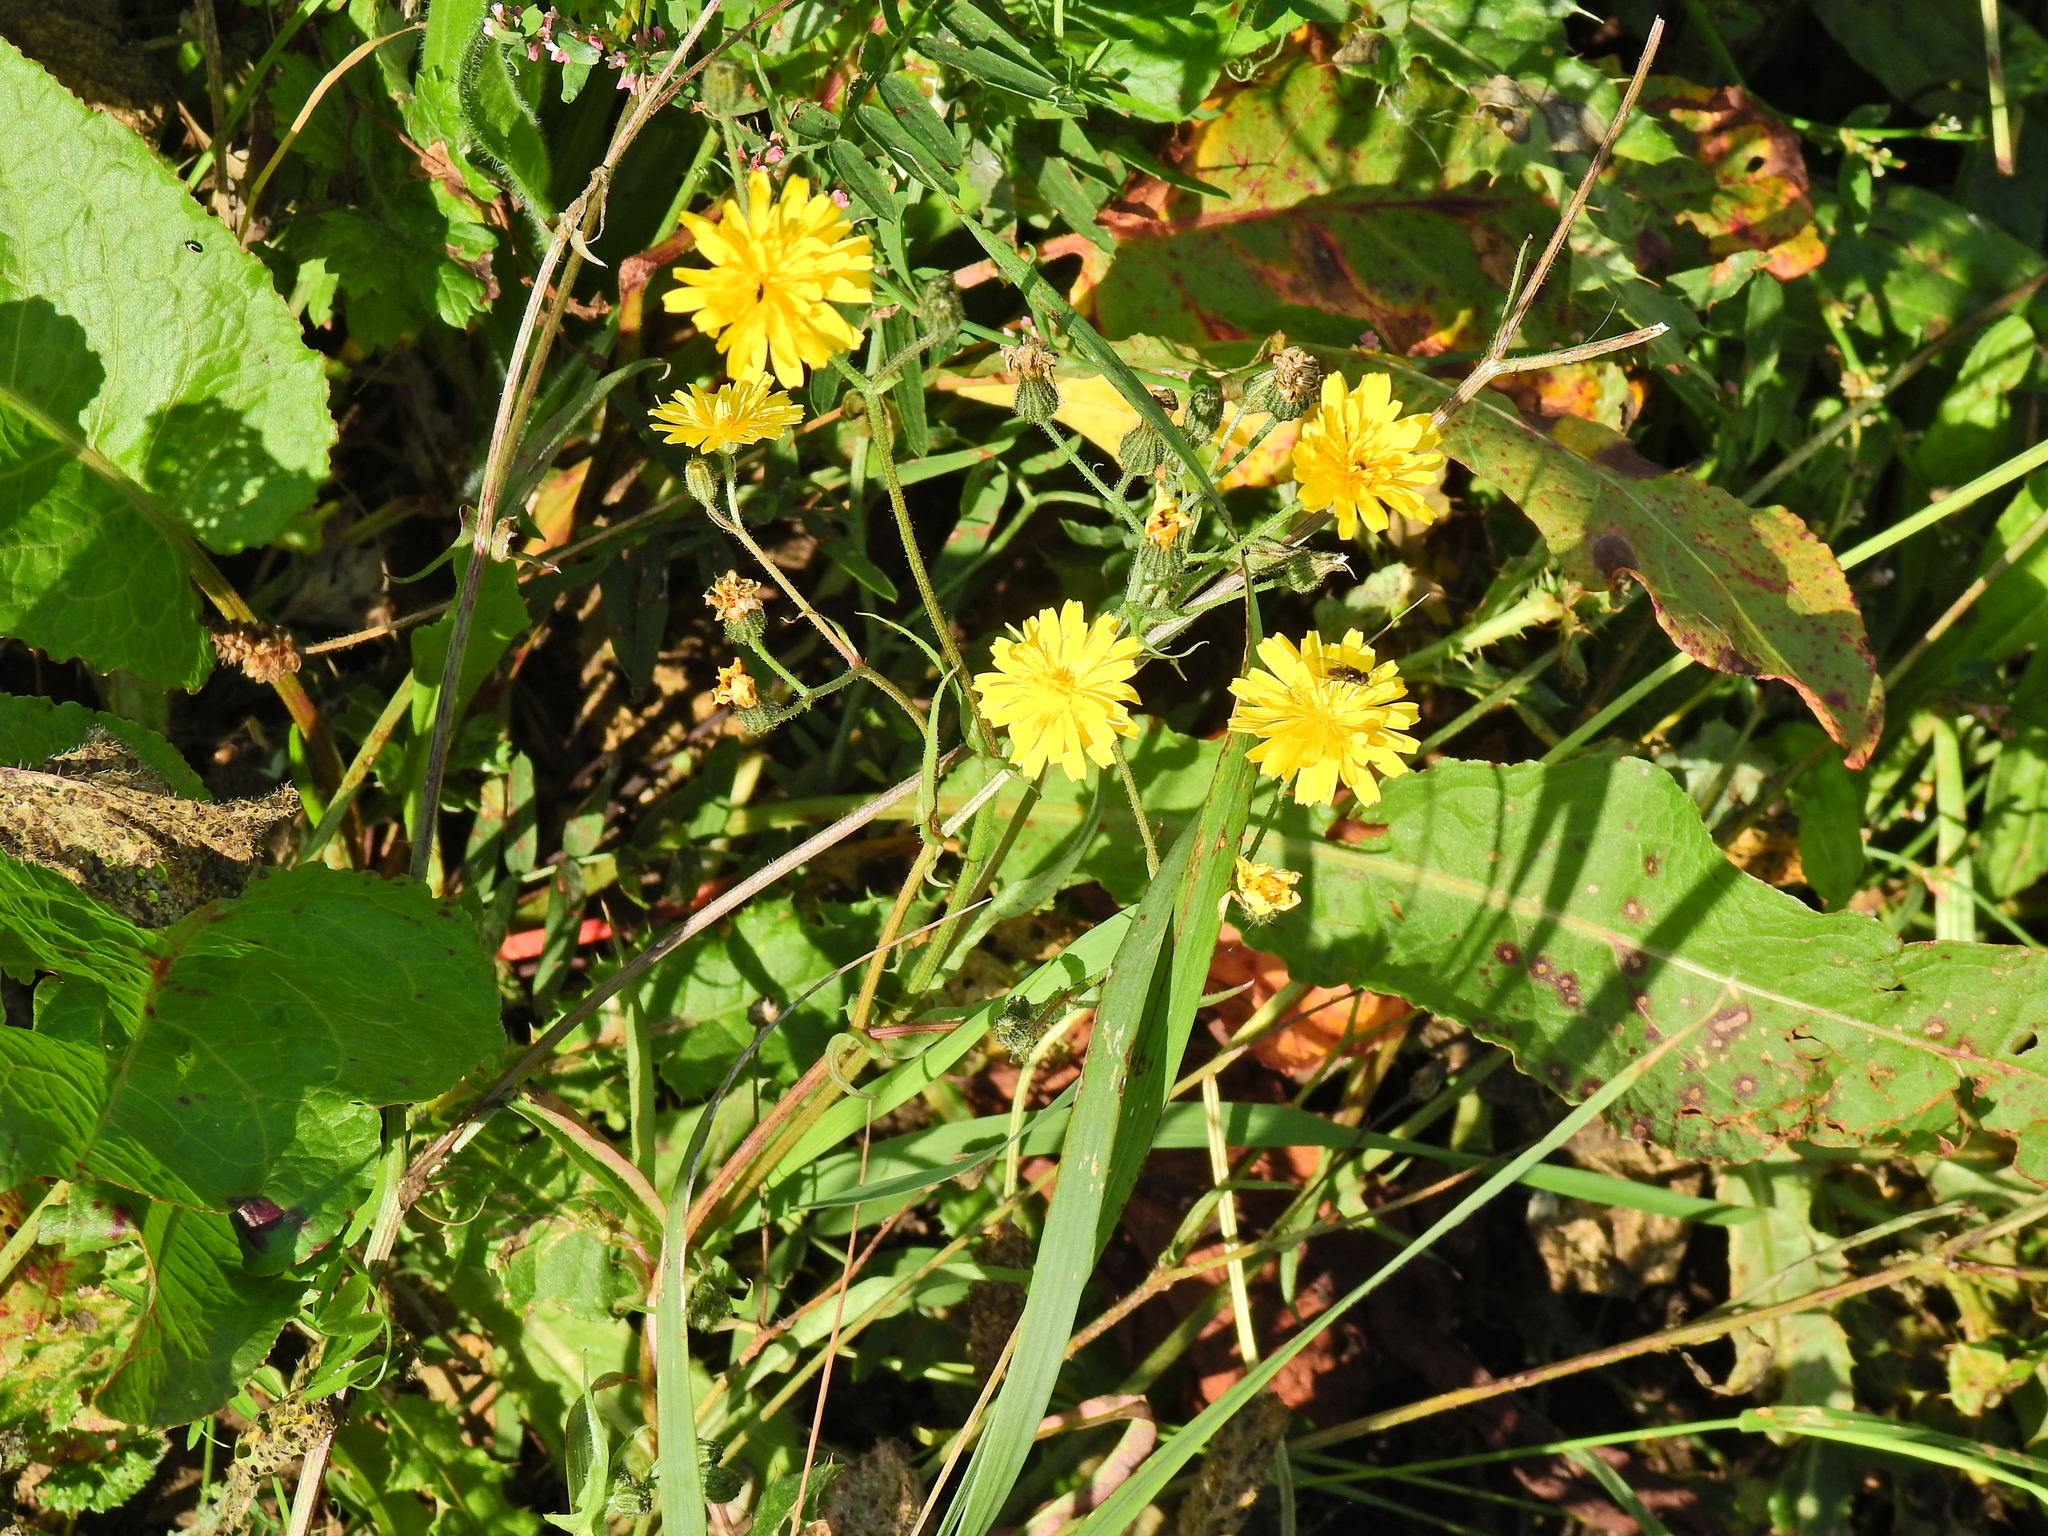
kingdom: Plantae
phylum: Tracheophyta
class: Magnoliopsida
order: Asterales
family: Asteraceae
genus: Crepis
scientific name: Crepis capillaris
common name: Smooth hawksbeard
